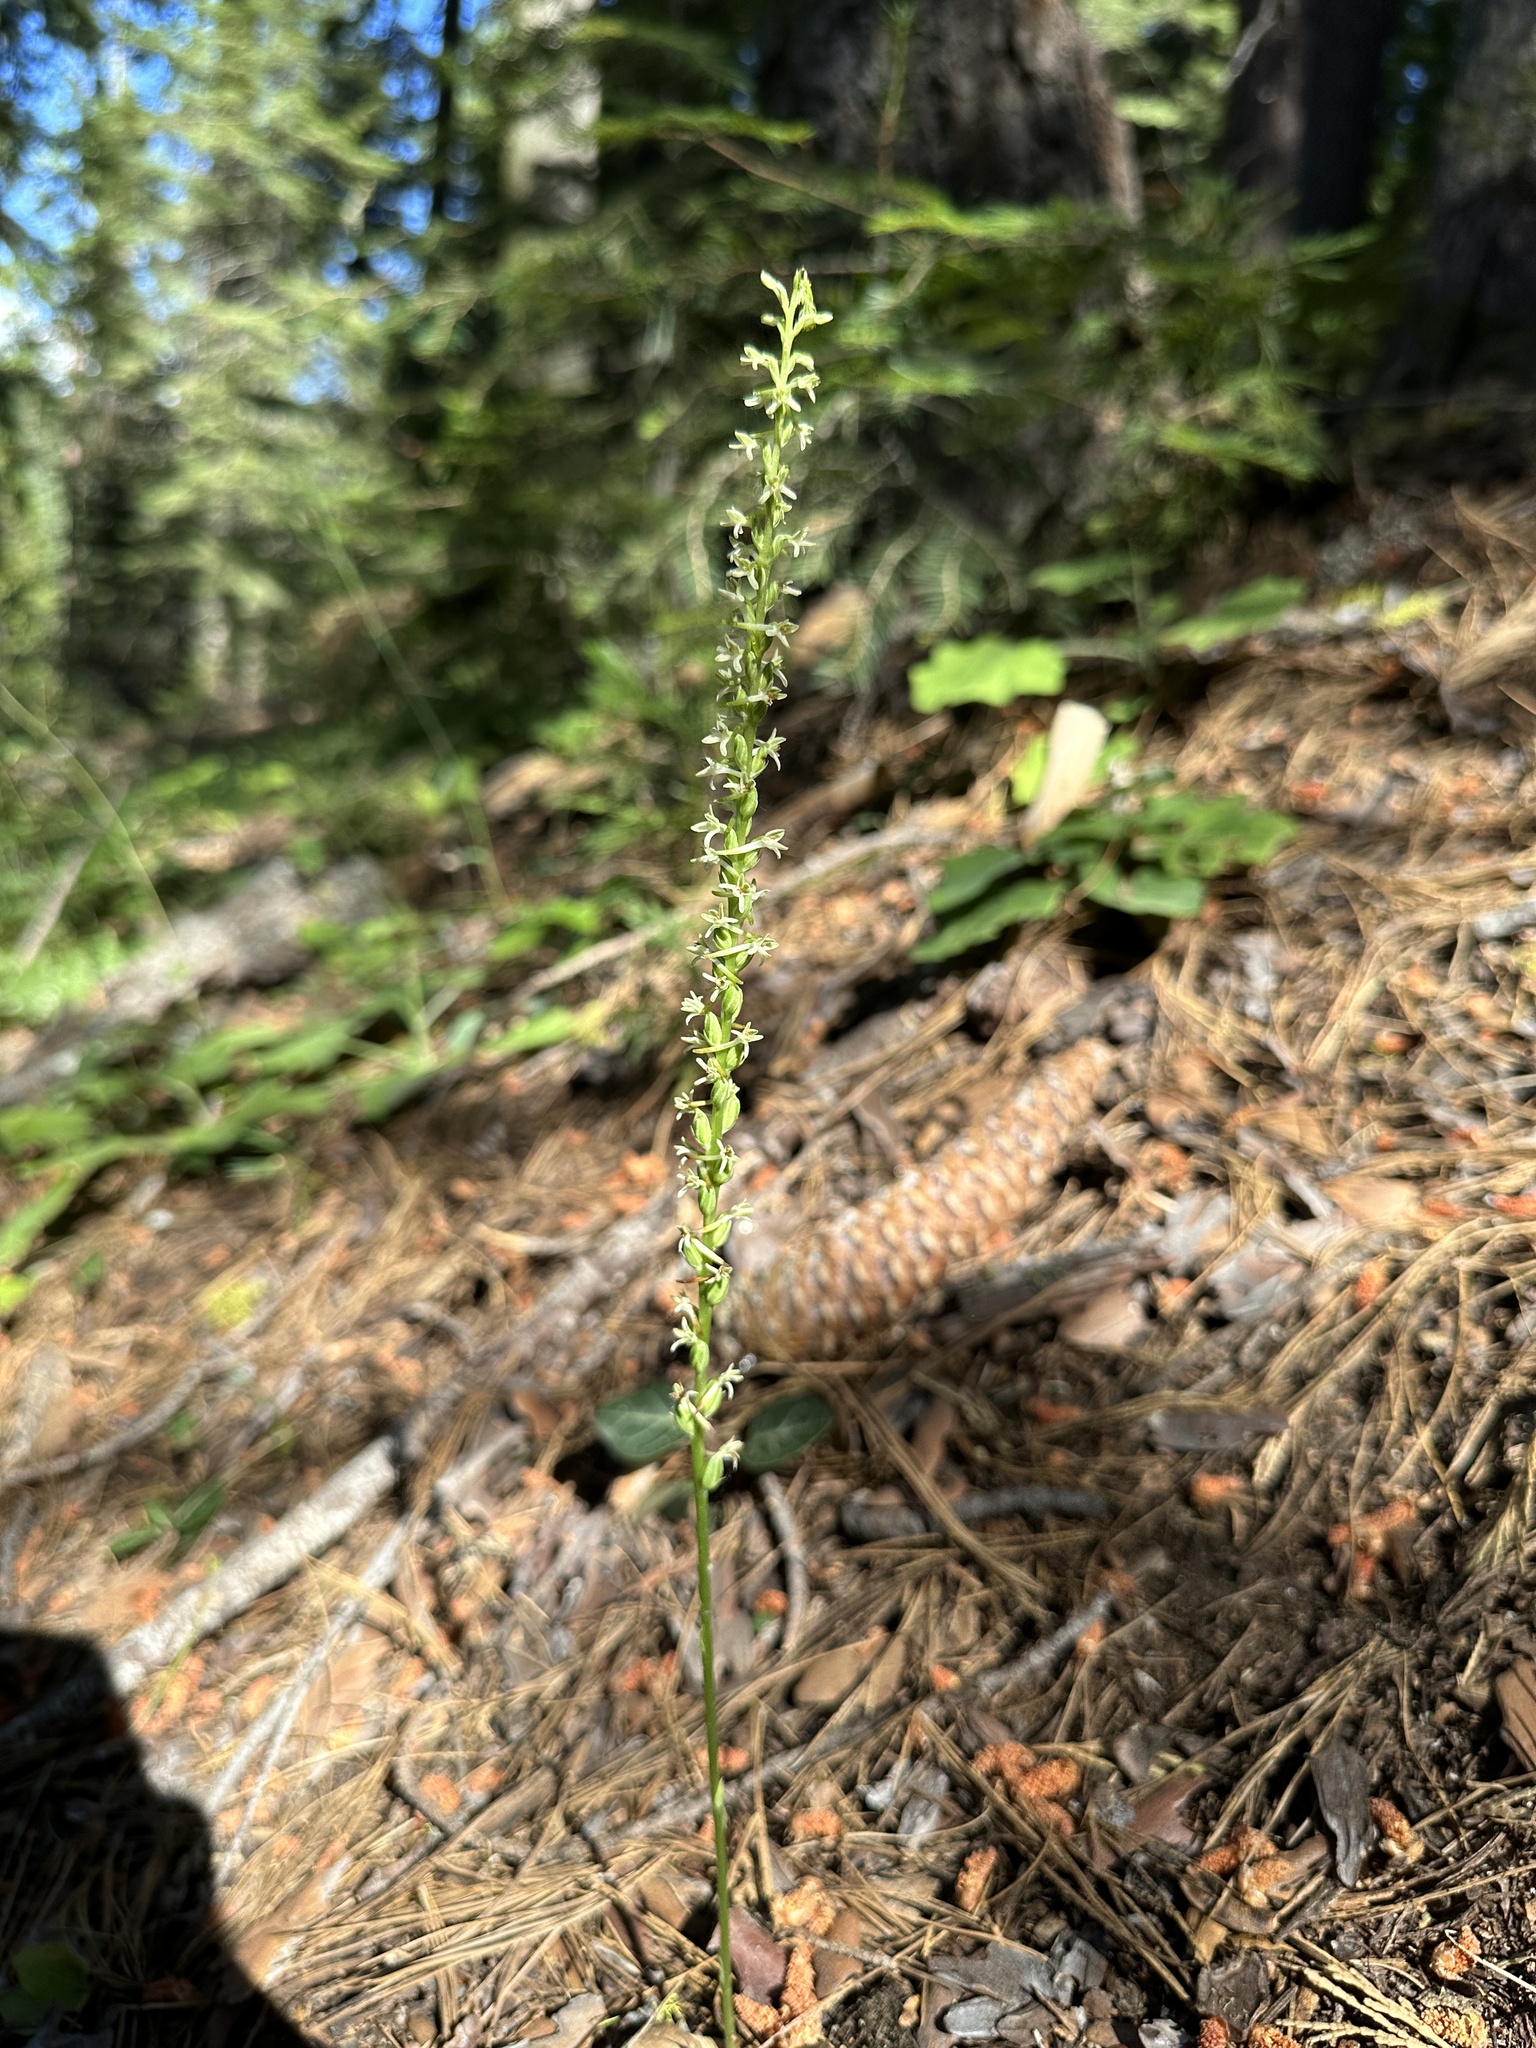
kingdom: Plantae
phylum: Tracheophyta
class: Liliopsida
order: Asparagales
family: Orchidaceae
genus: Platanthera
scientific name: Platanthera transversa
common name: Royal rein orchid
